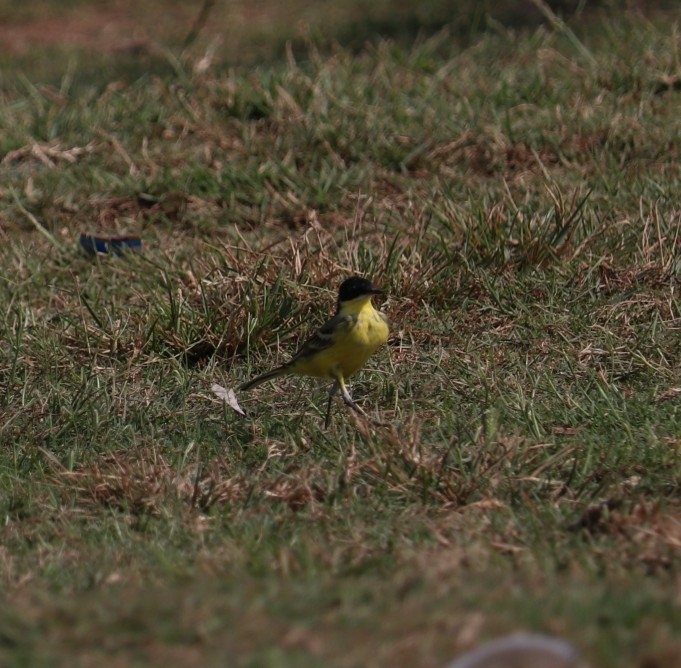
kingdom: Animalia
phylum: Chordata
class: Aves
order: Passeriformes
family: Motacillidae
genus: Motacilla
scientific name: Motacilla flava
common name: Western yellow wagtail
